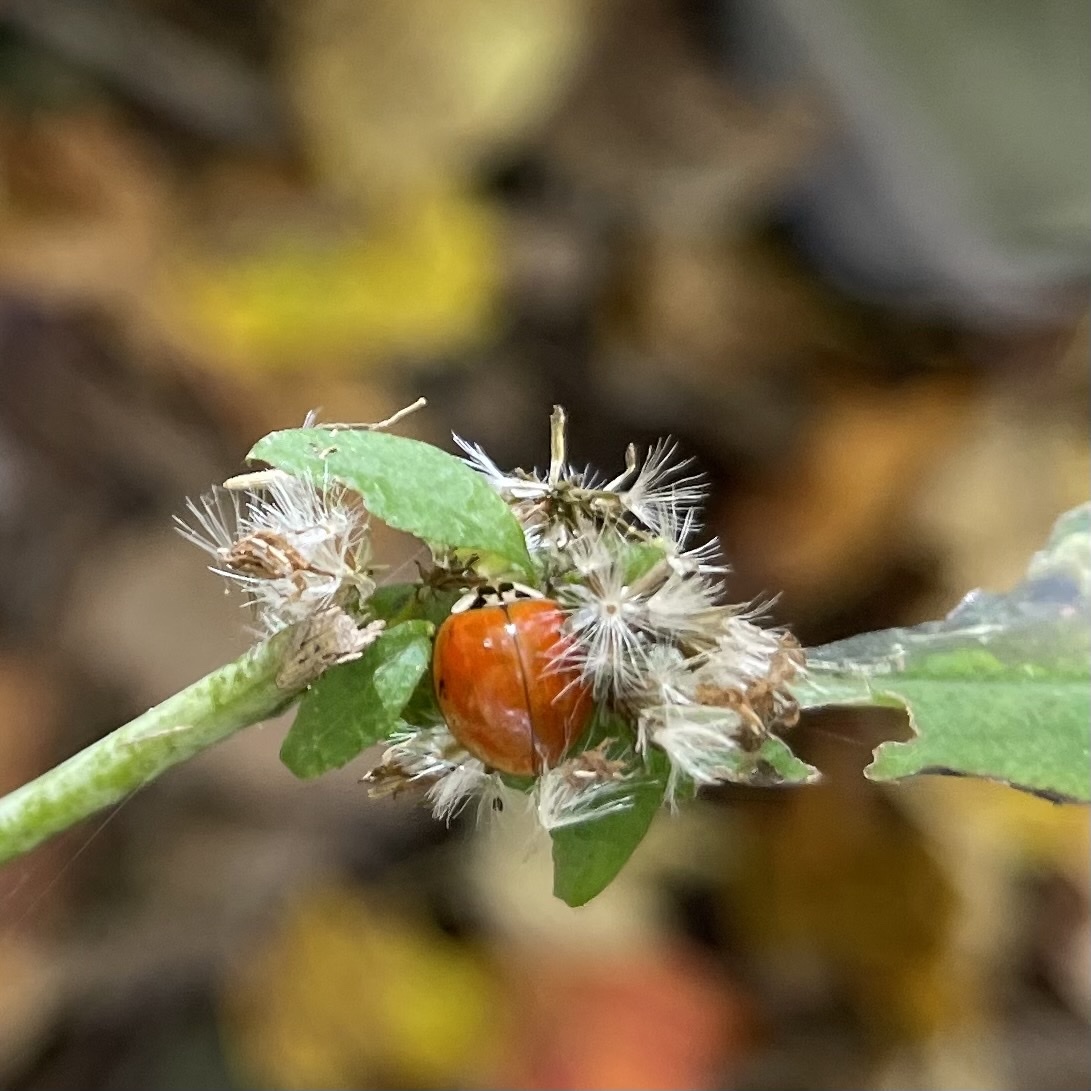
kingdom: Animalia
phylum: Arthropoda
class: Insecta
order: Coleoptera
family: Coccinellidae
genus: Harmonia
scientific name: Harmonia axyridis
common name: Harlequin ladybird
